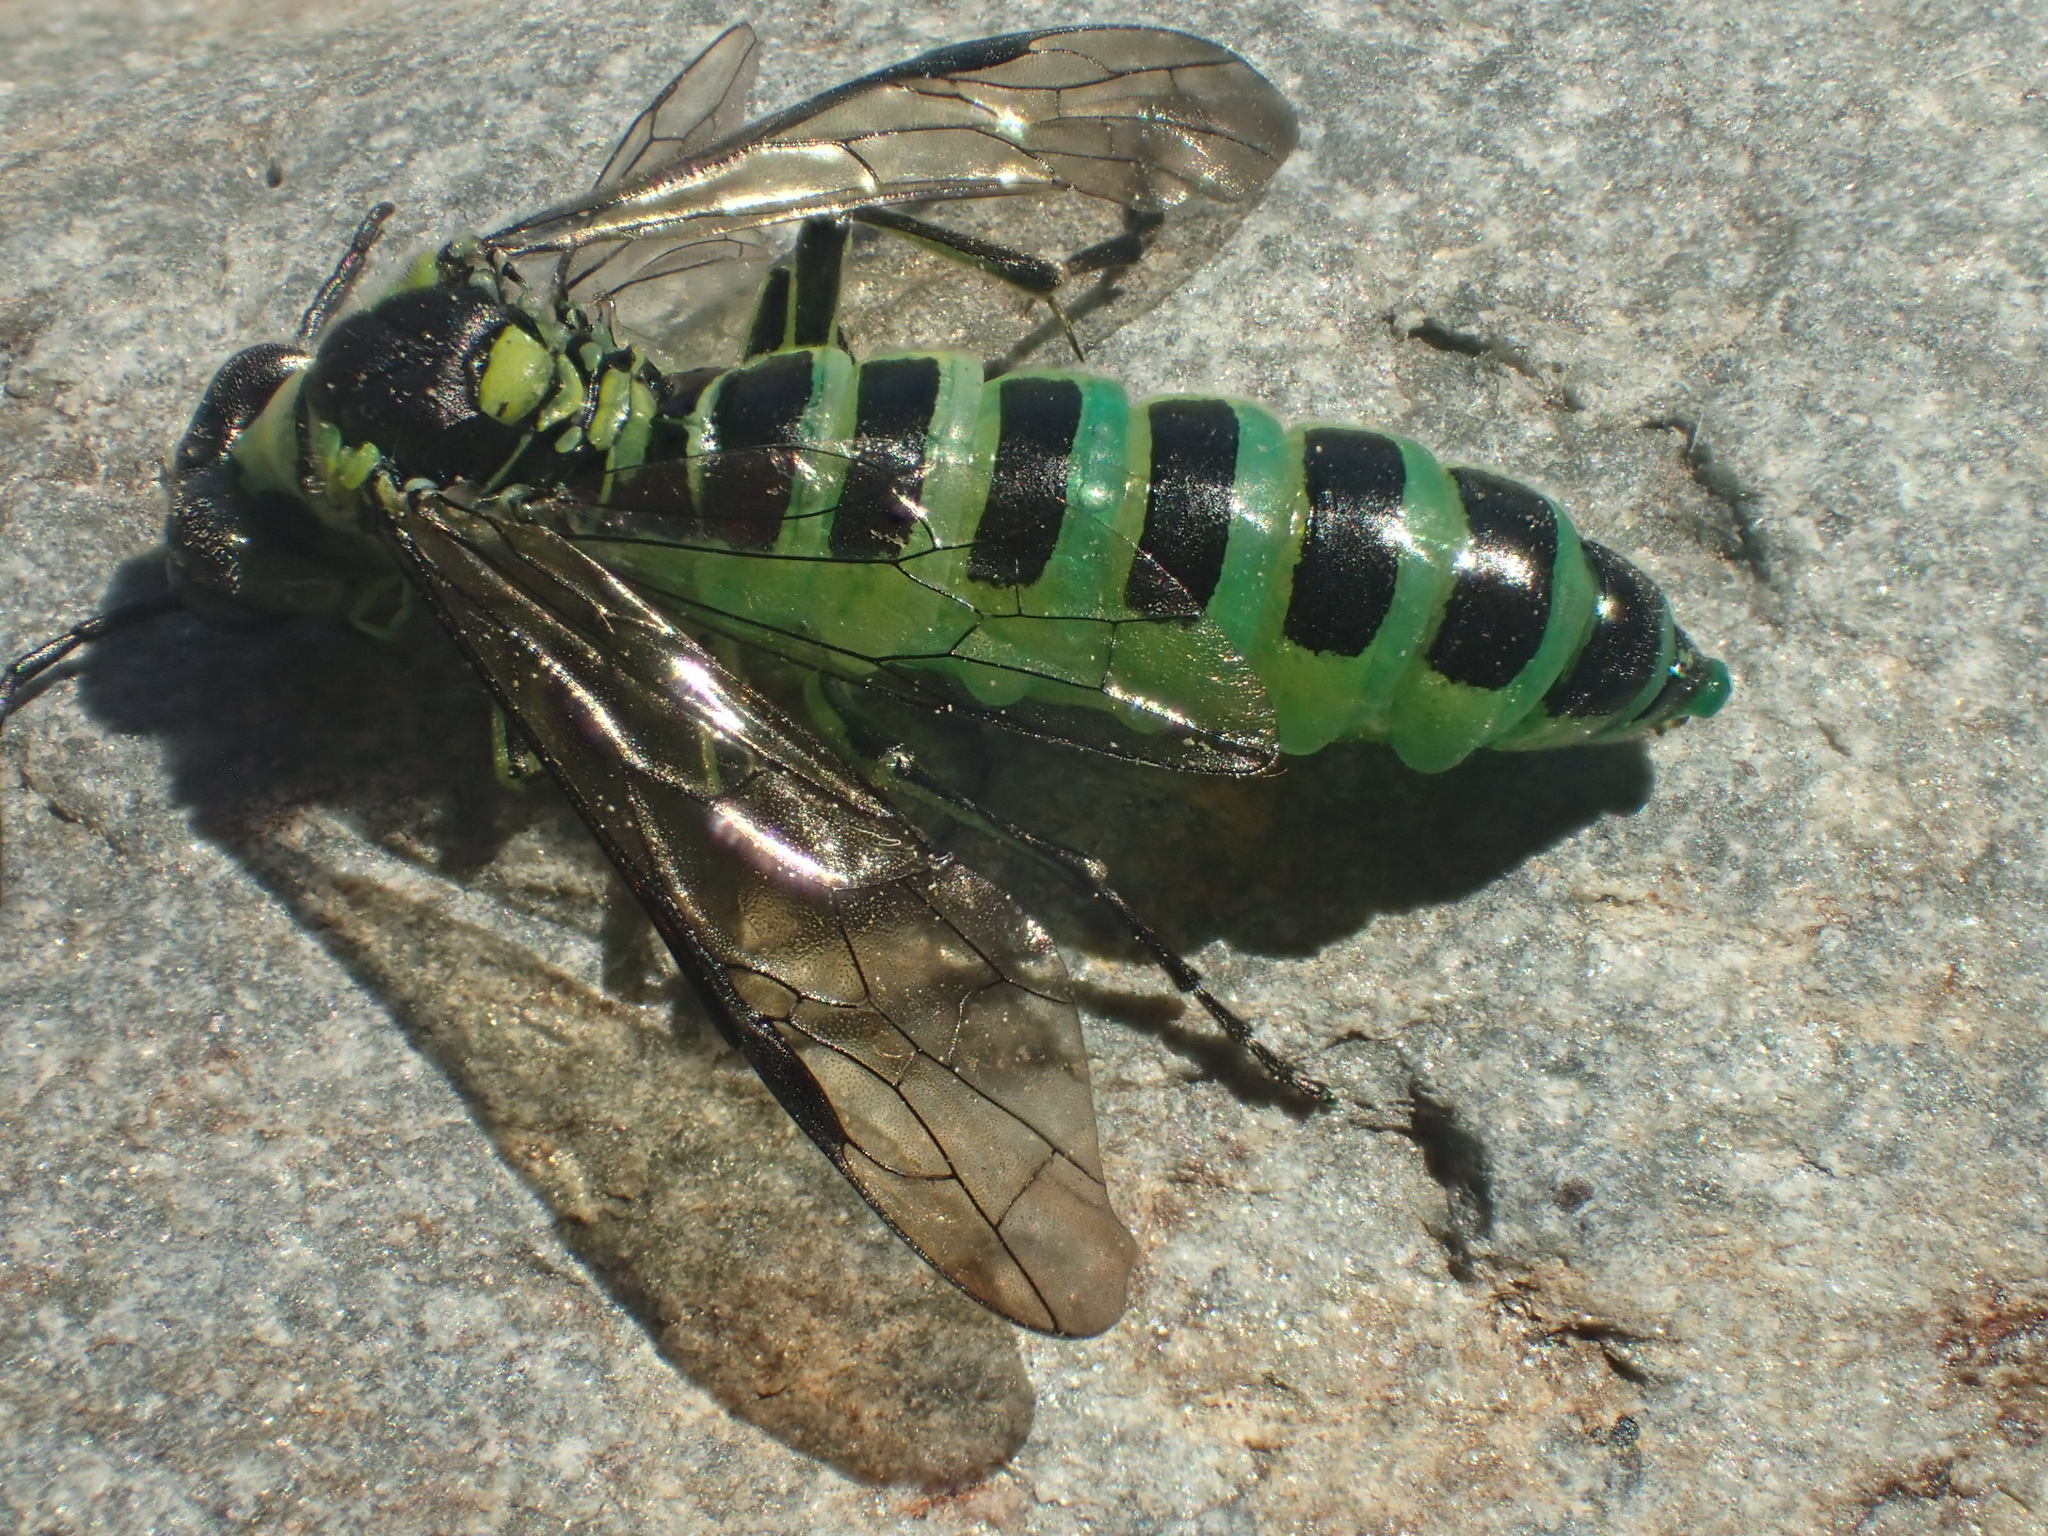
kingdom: Animalia
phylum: Arthropoda
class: Insecta
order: Hymenoptera
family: Tenthredinidae
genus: Tenthredo
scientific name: Tenthredo mioceras
